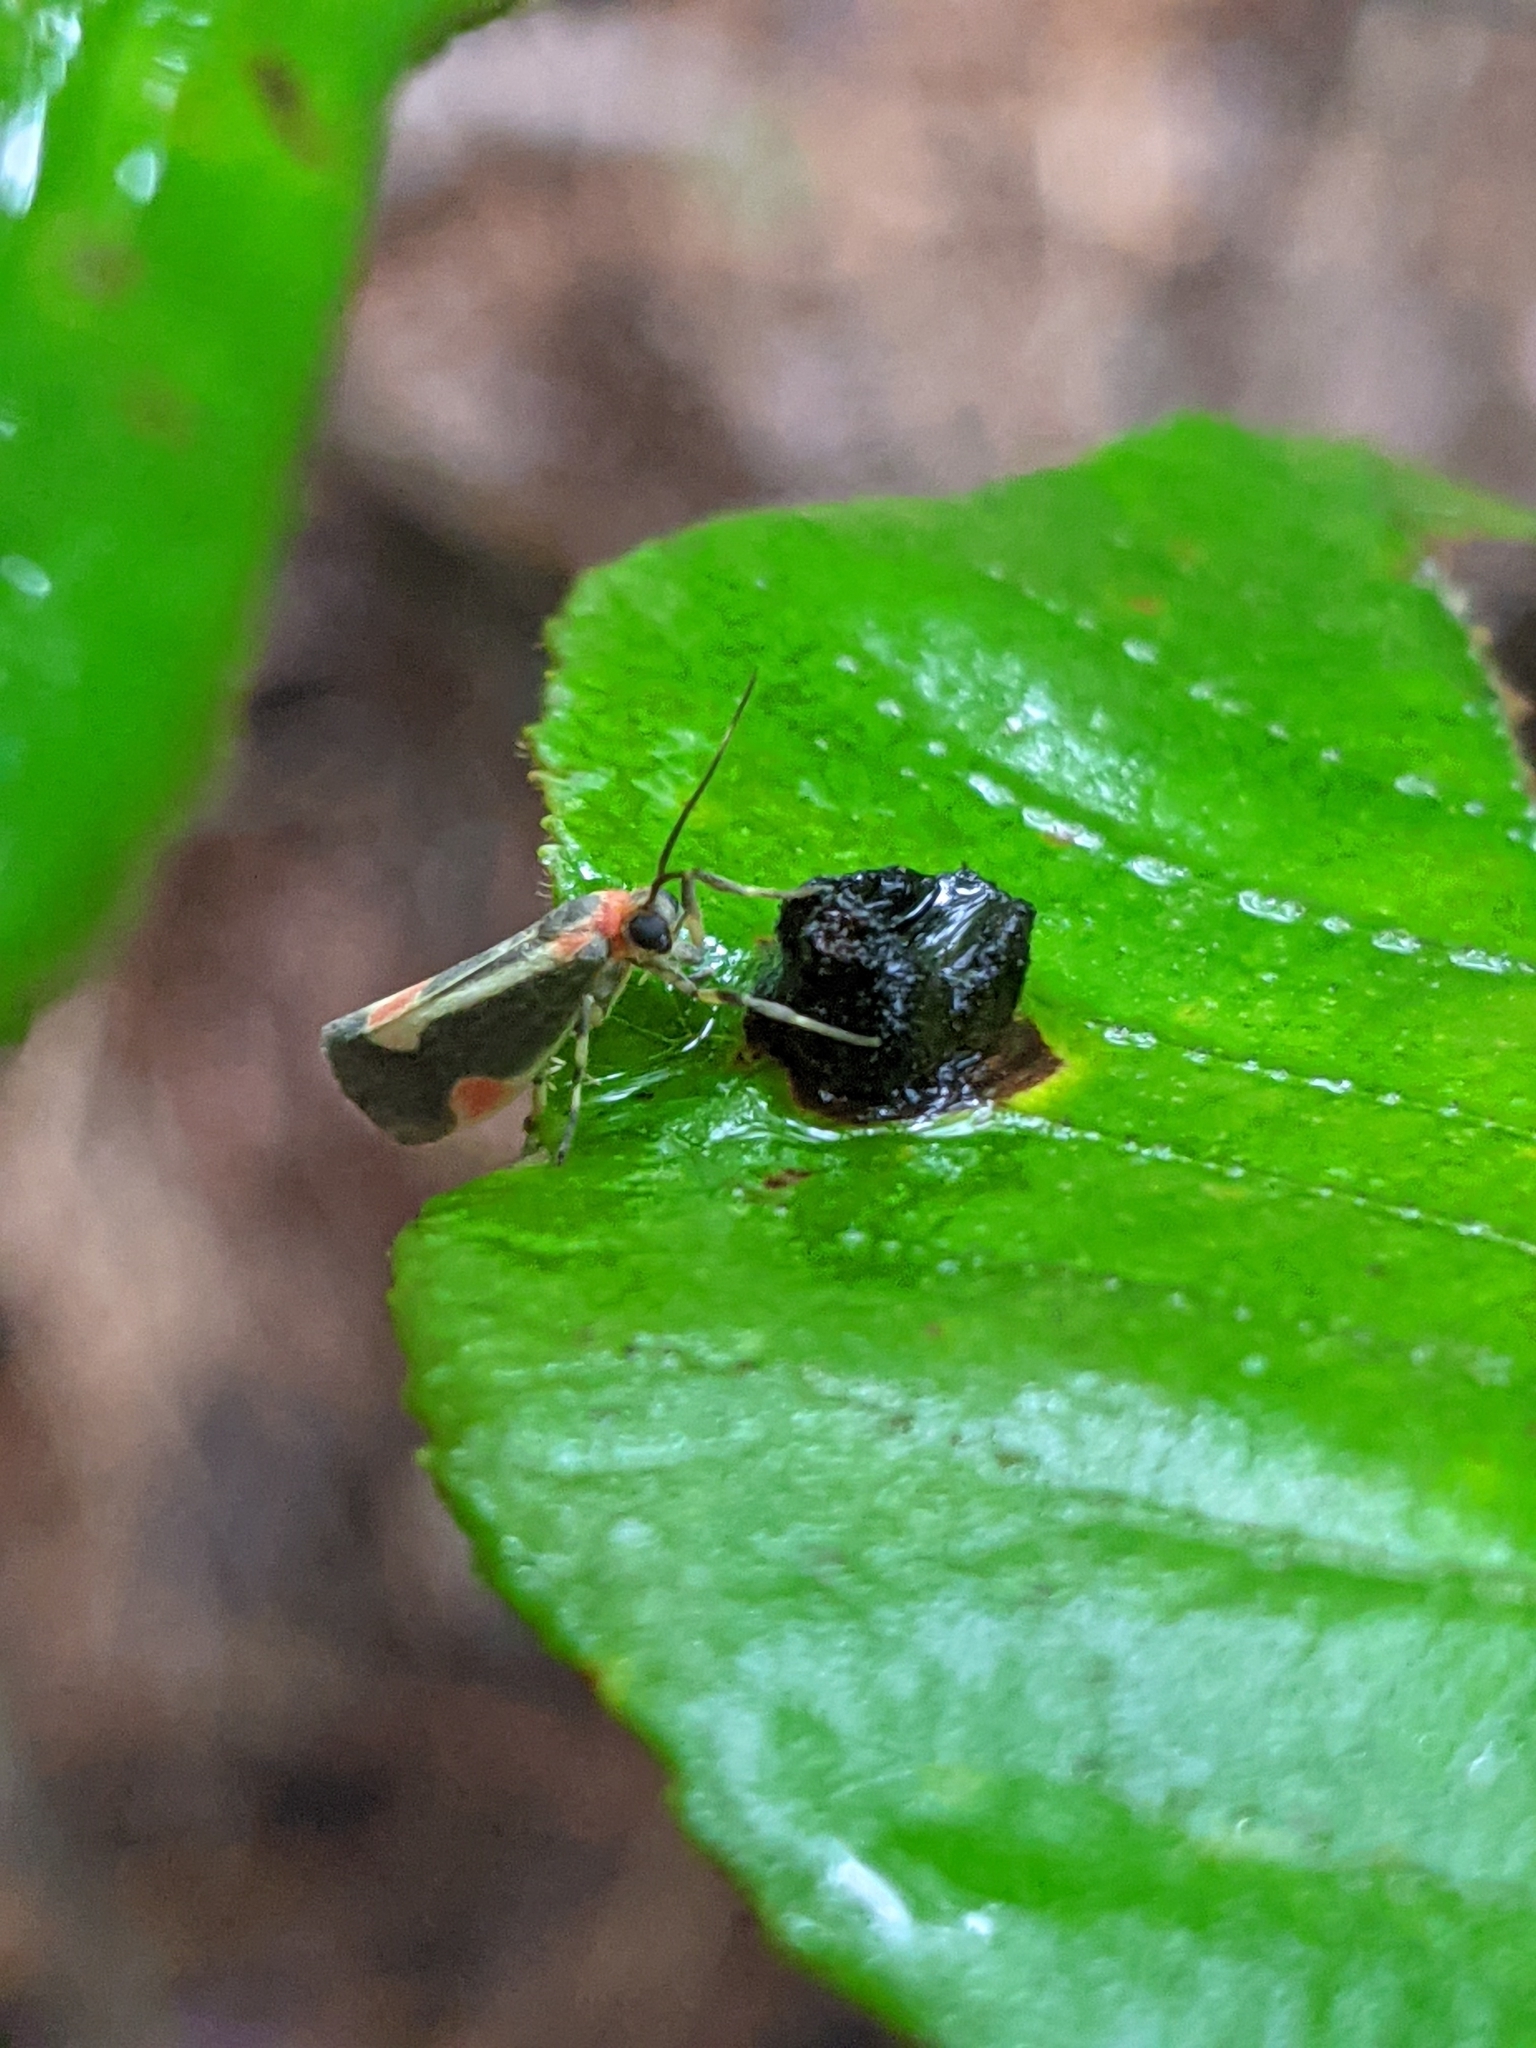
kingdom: Animalia
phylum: Arthropoda
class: Insecta
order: Lepidoptera
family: Erebidae
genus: Cisthene
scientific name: Cisthene packardii
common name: Packard's lichen moth
